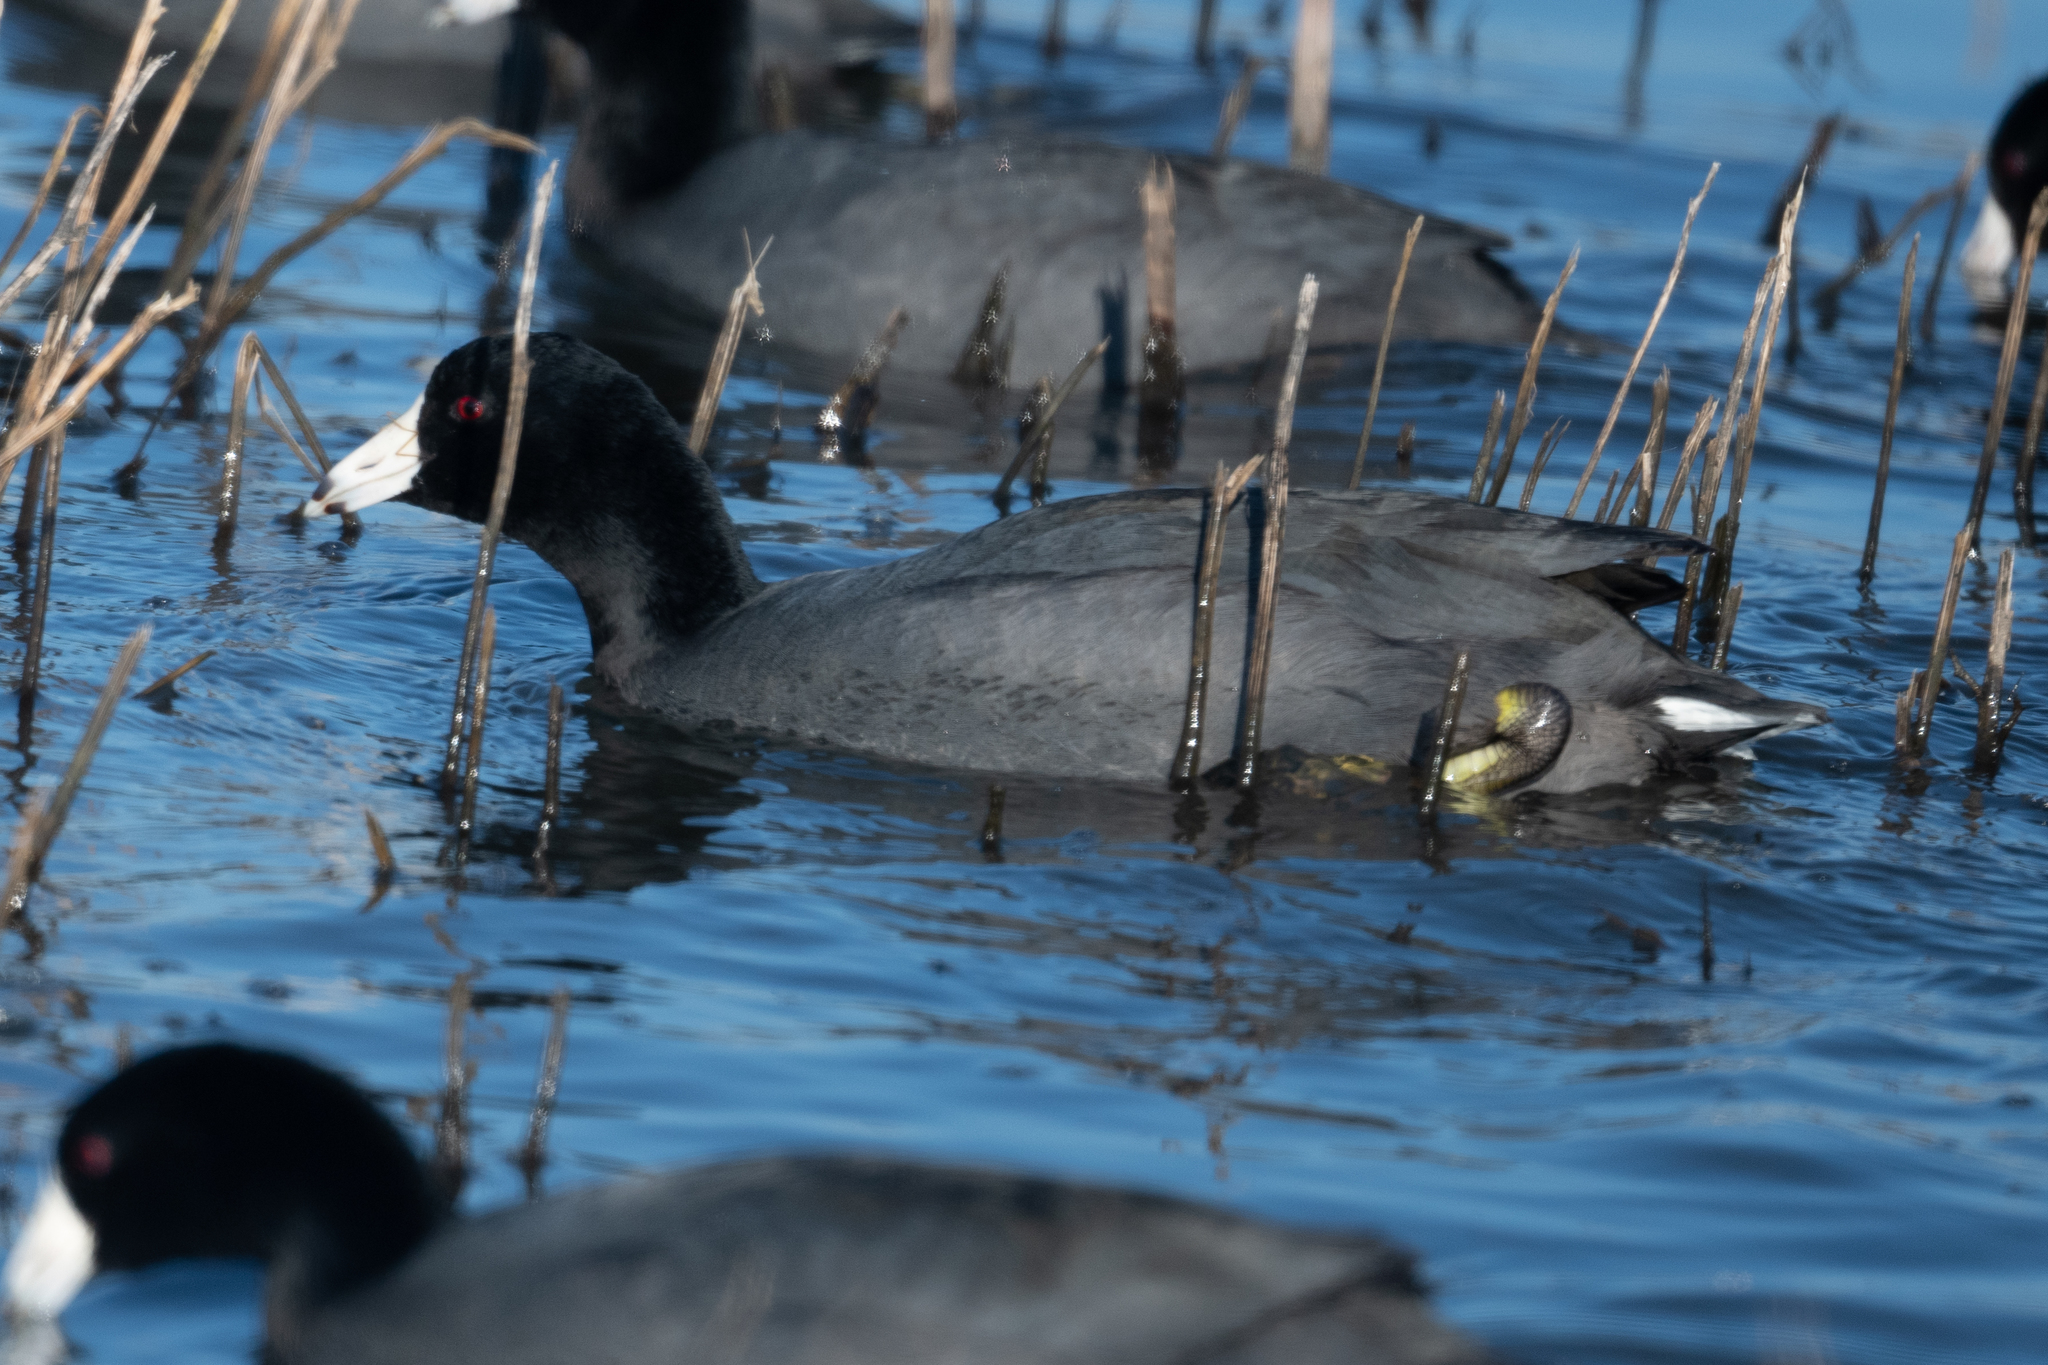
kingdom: Animalia
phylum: Chordata
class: Aves
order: Gruiformes
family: Rallidae
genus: Fulica
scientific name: Fulica americana
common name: American coot
